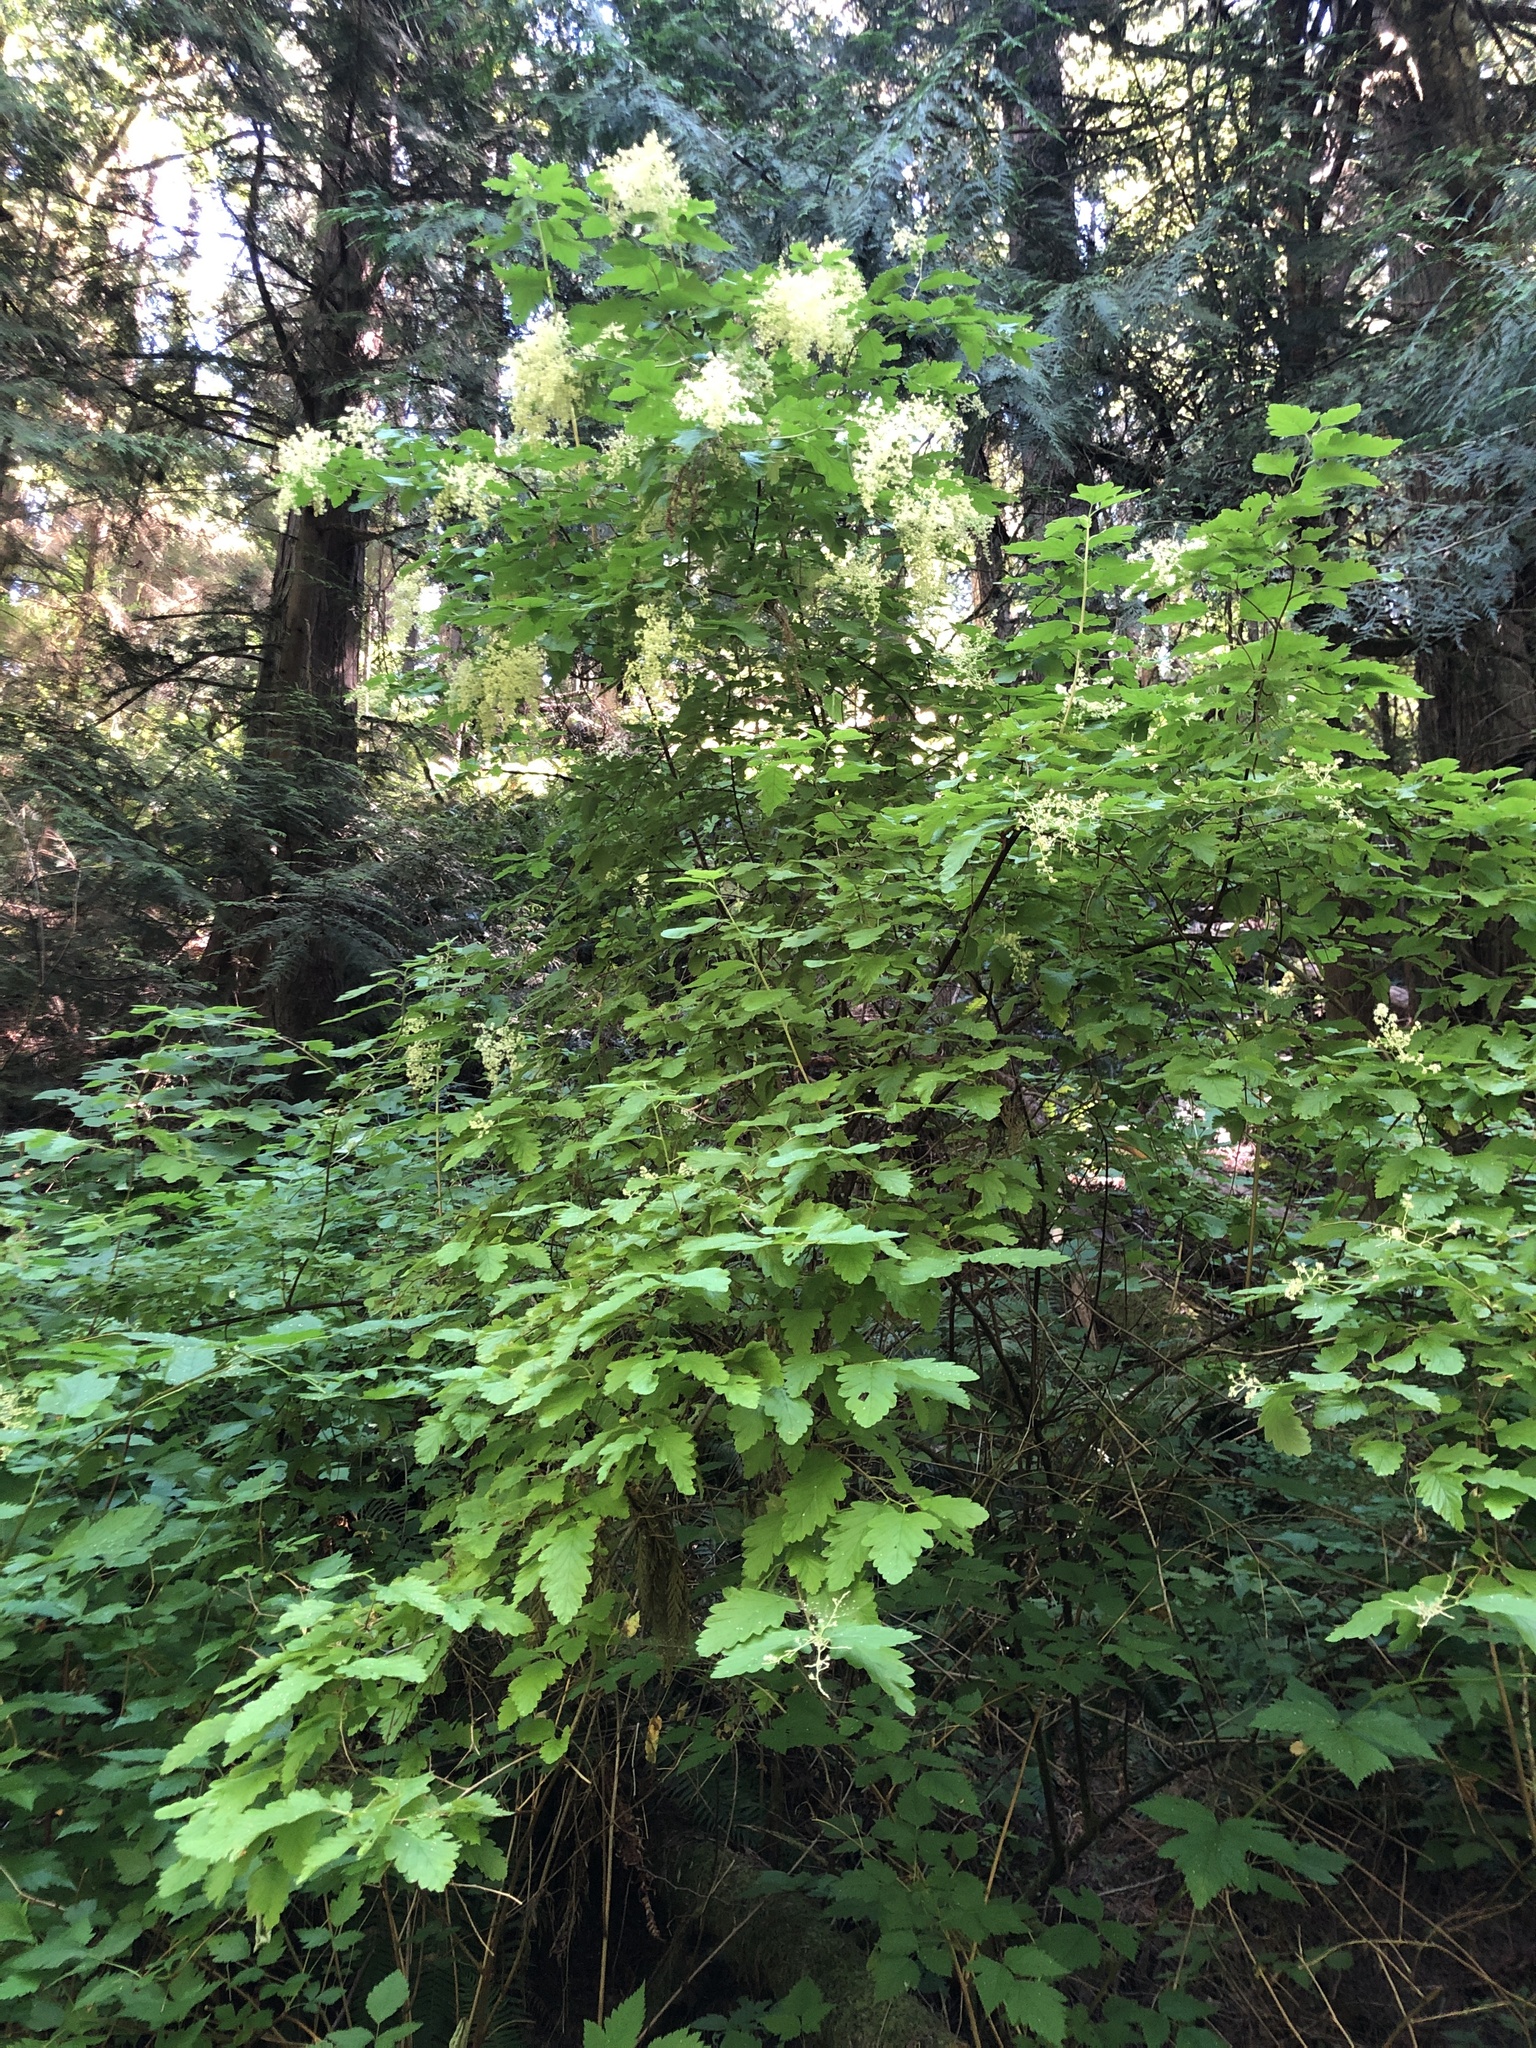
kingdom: Plantae
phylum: Tracheophyta
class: Magnoliopsida
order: Rosales
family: Rosaceae
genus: Holodiscus
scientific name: Holodiscus discolor
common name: Oceanspray
